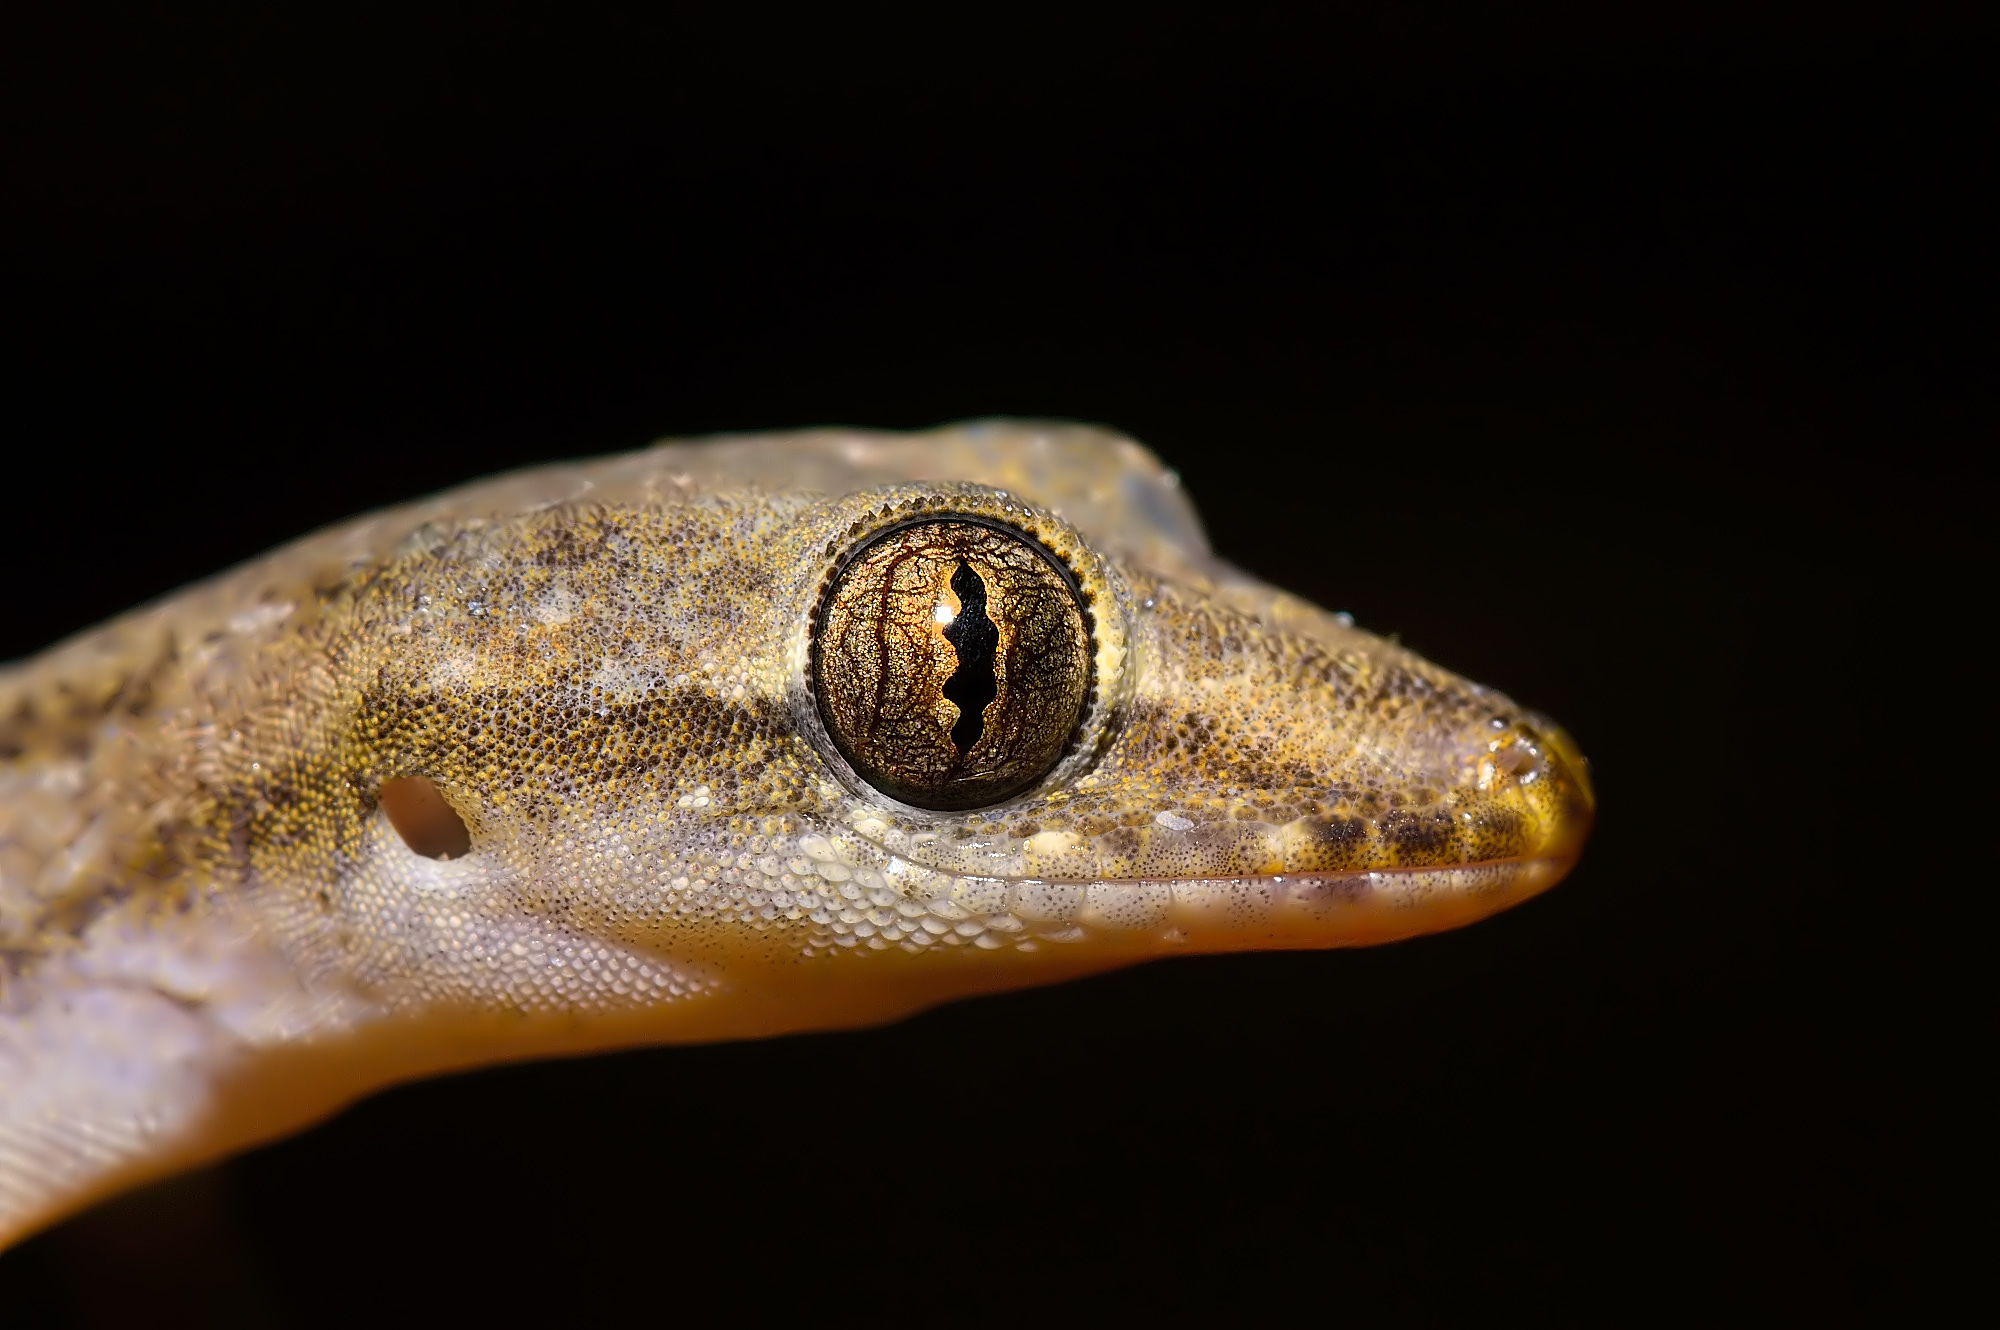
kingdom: Animalia
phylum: Chordata
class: Squamata
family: Gekkonidae
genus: Hemidactylus
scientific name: Hemidactylus frenatus
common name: Common house gecko
